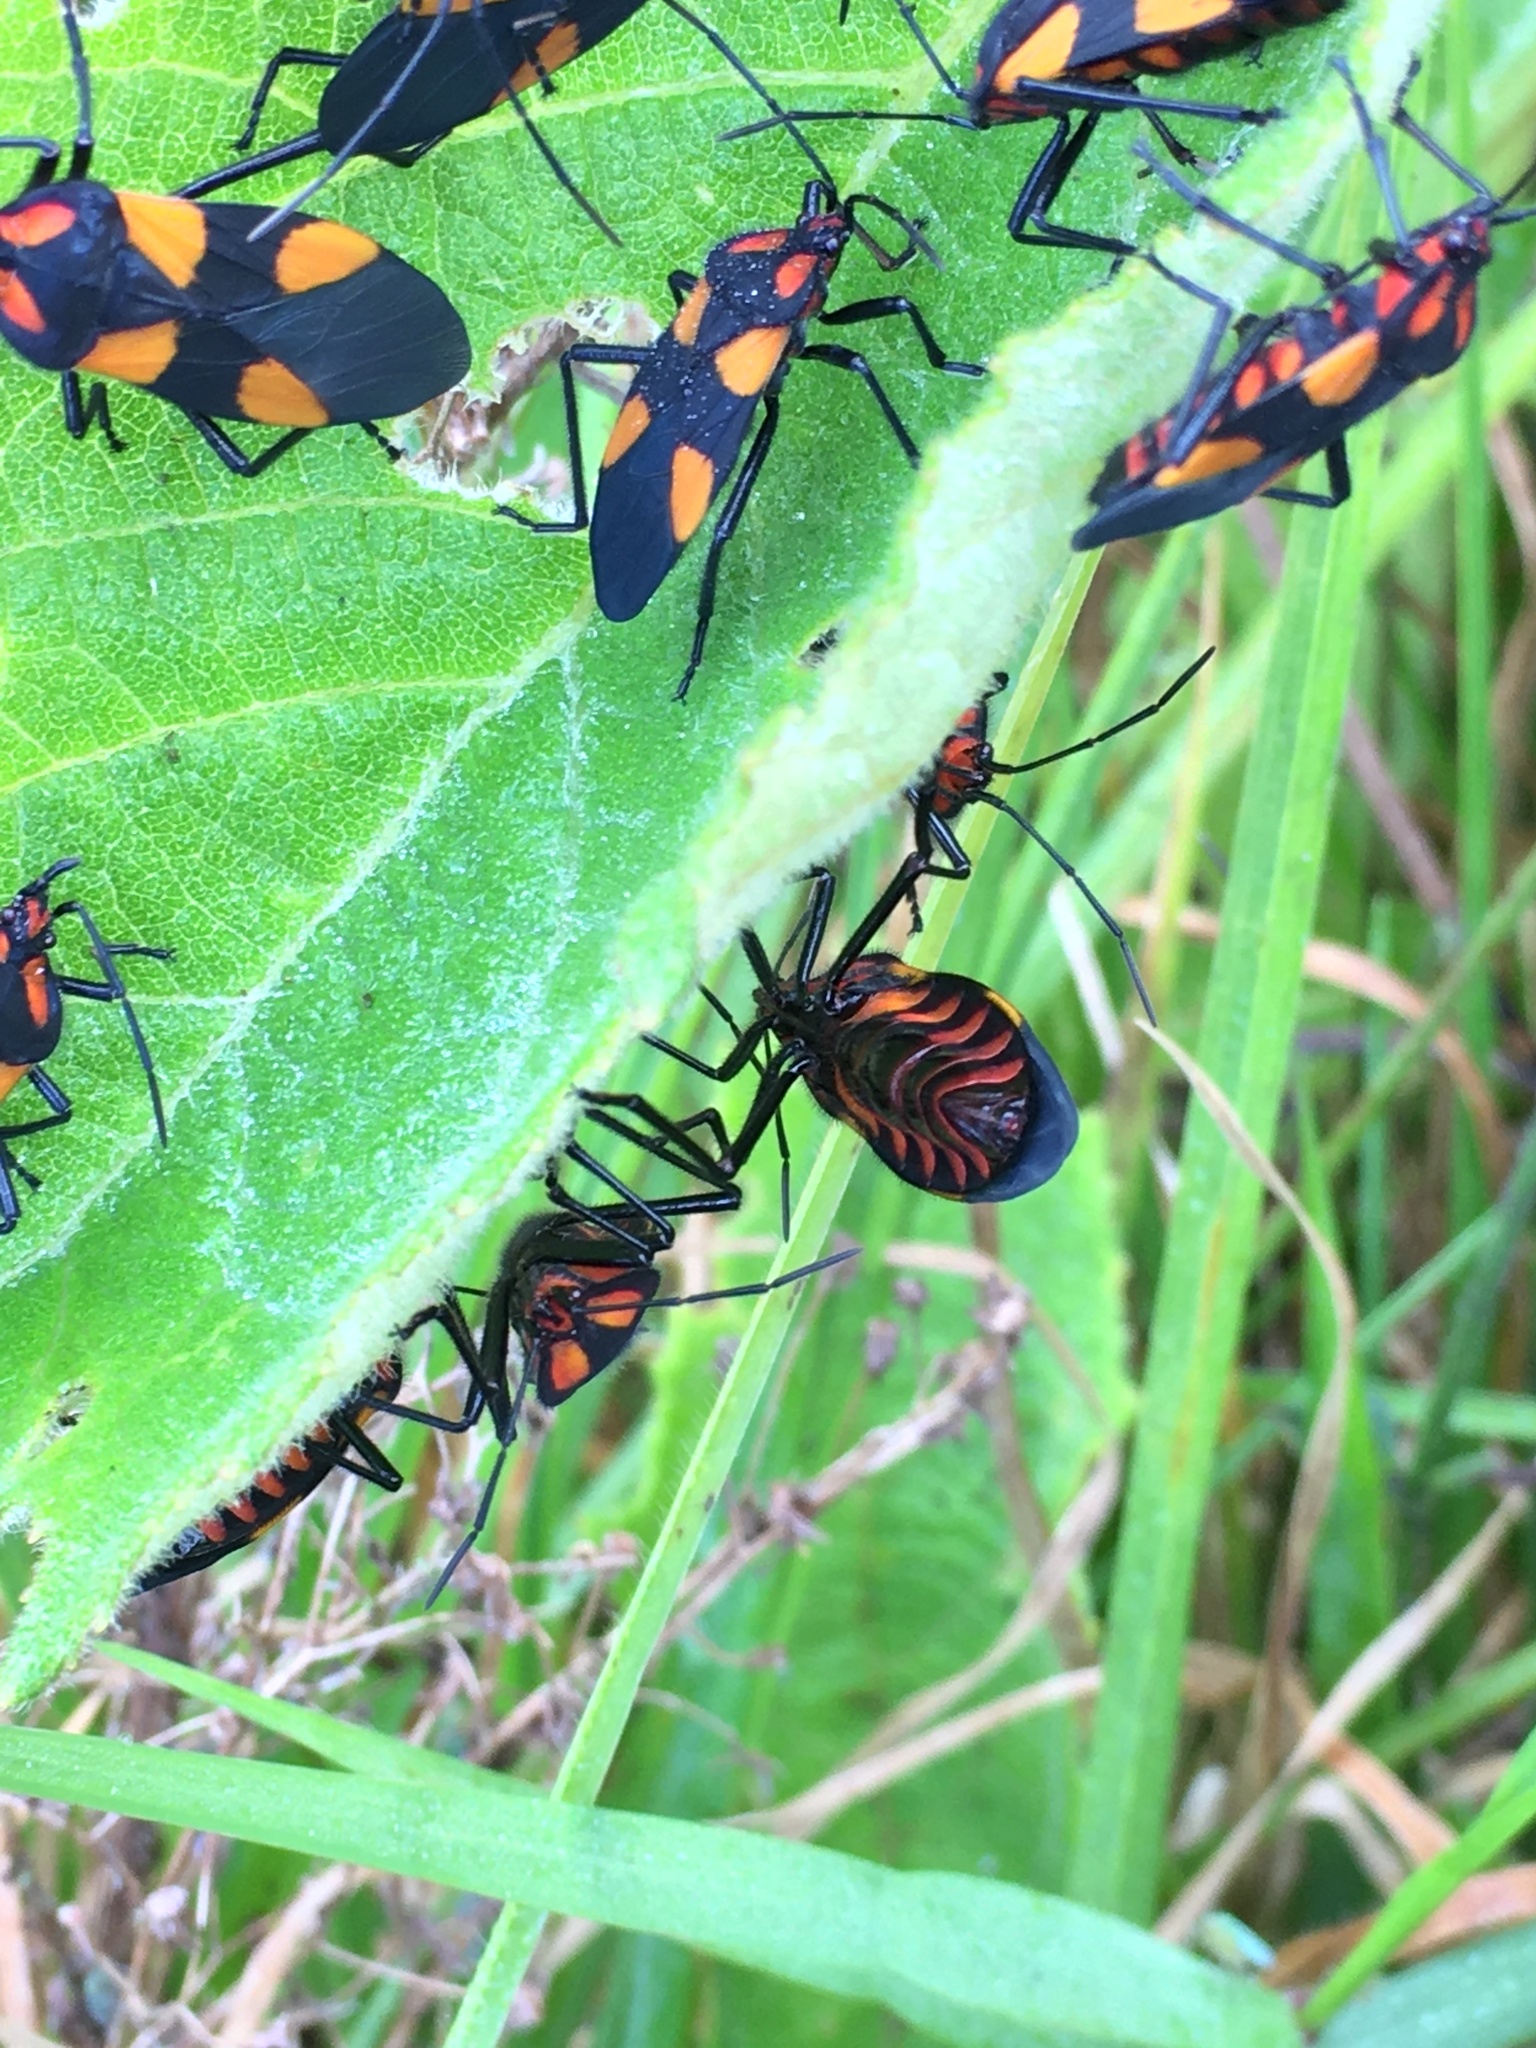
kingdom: Animalia
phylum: Arthropoda
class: Insecta
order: Hemiptera
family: Lygaeidae
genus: Oncopeltus
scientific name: Oncopeltus varicolor
